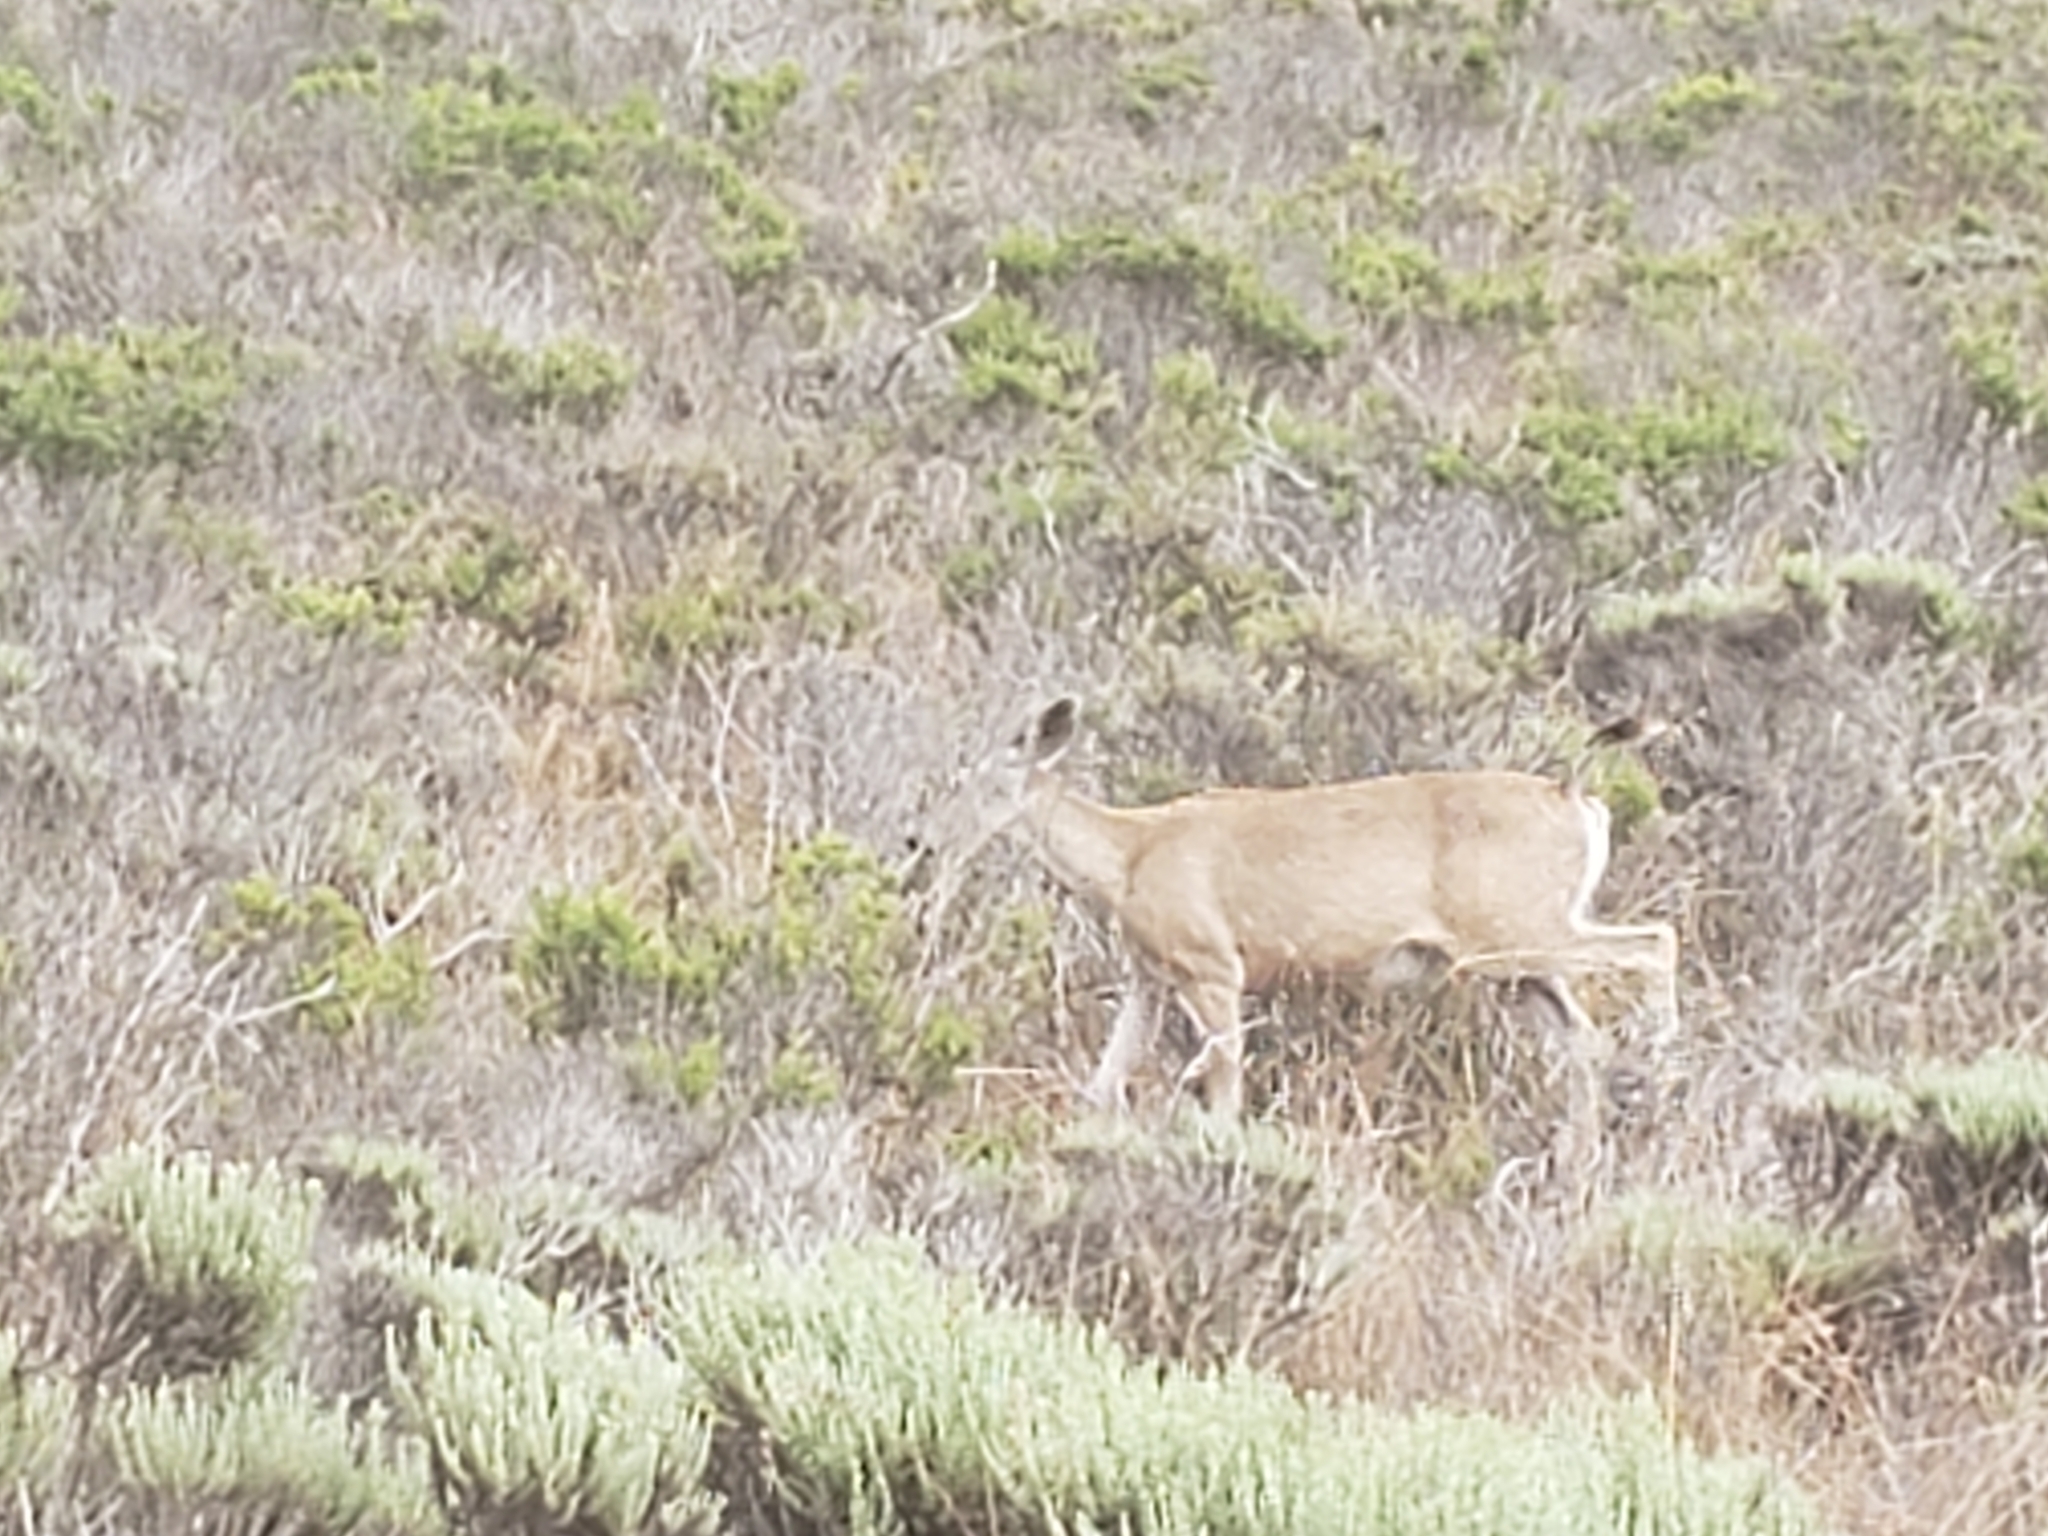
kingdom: Animalia
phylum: Chordata
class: Mammalia
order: Artiodactyla
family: Cervidae
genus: Odocoileus
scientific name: Odocoileus hemionus
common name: Mule deer
